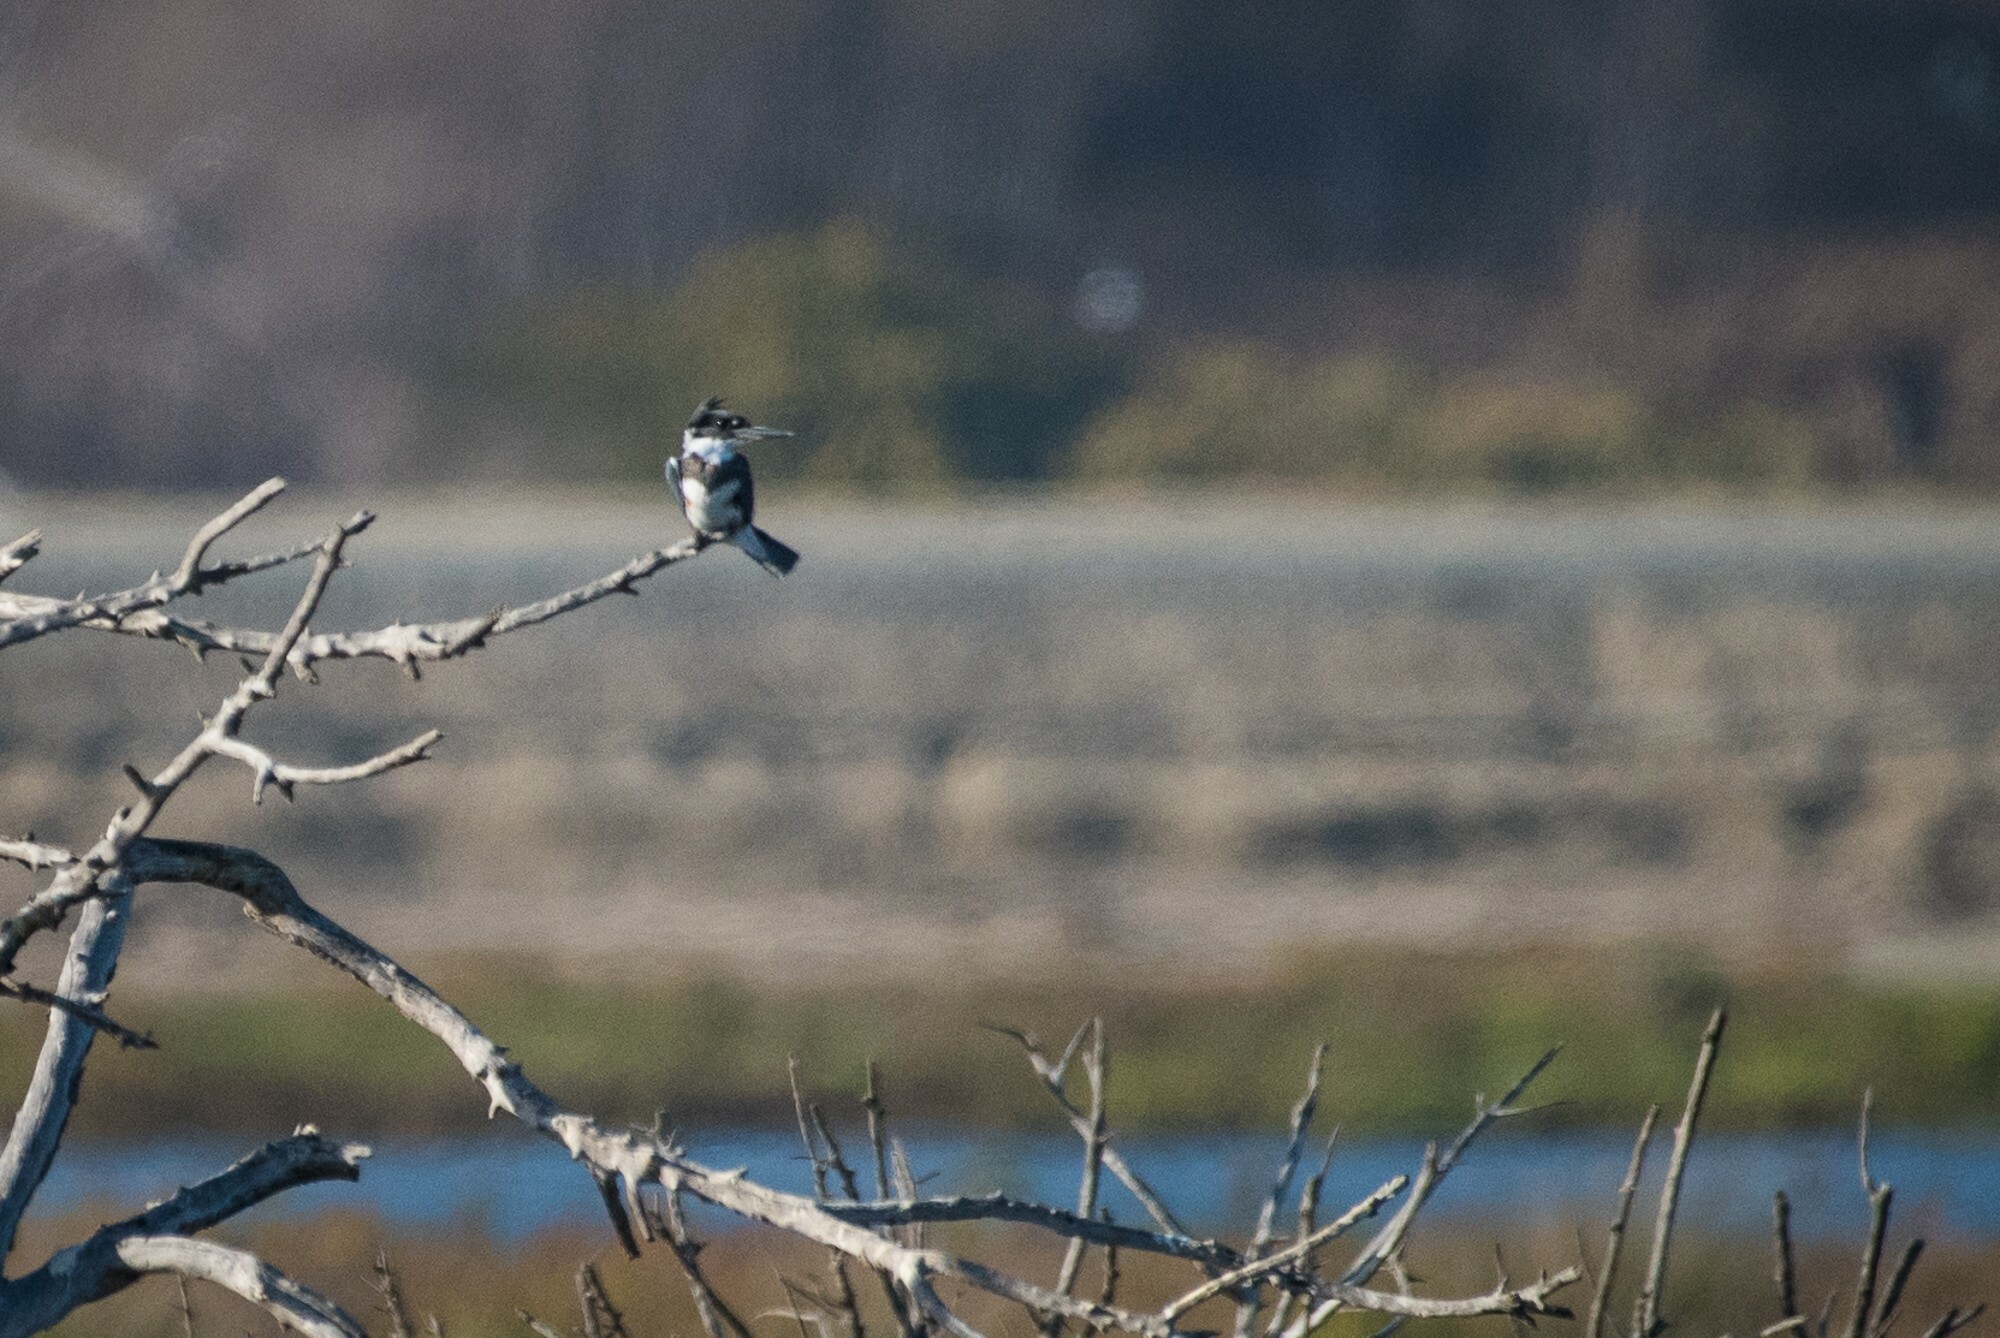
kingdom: Animalia
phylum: Chordata
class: Aves
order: Coraciiformes
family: Alcedinidae
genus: Megaceryle
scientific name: Megaceryle alcyon
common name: Belted kingfisher
